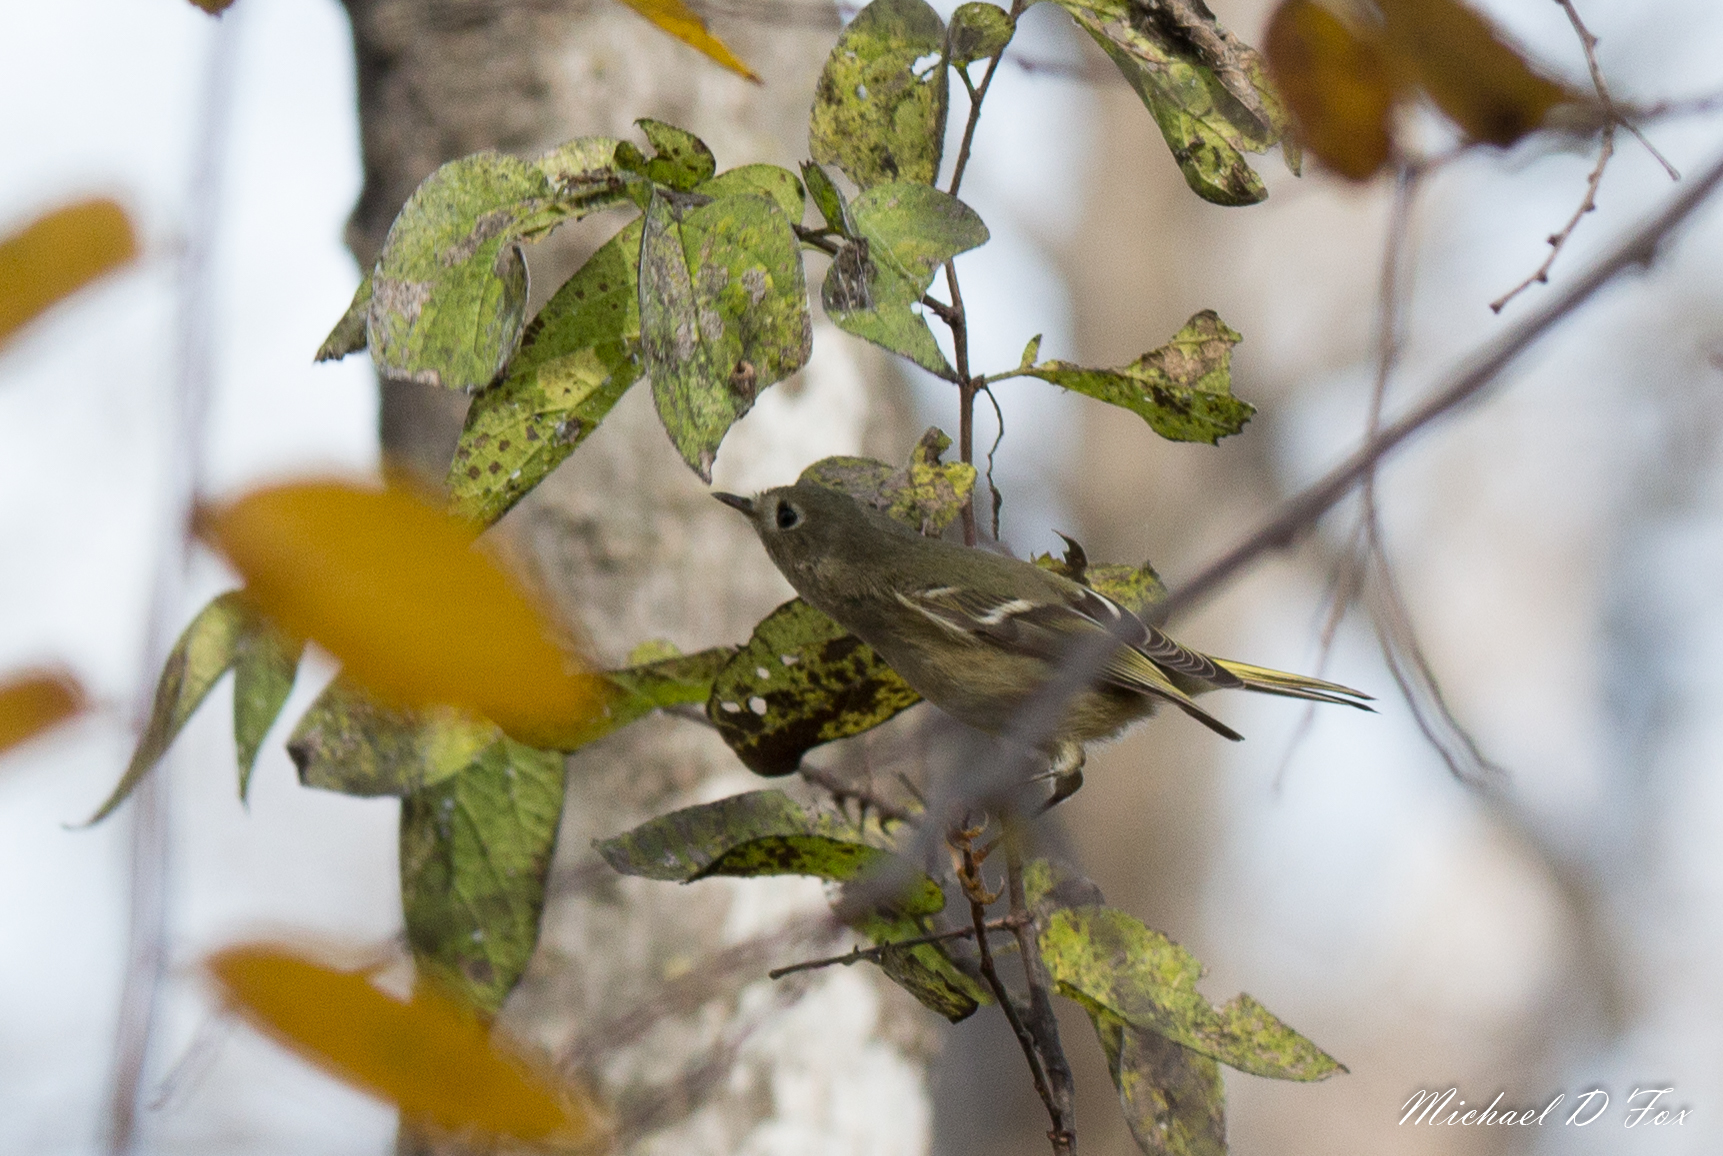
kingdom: Animalia
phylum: Chordata
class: Aves
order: Passeriformes
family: Regulidae
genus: Regulus
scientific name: Regulus calendula
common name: Ruby-crowned kinglet
